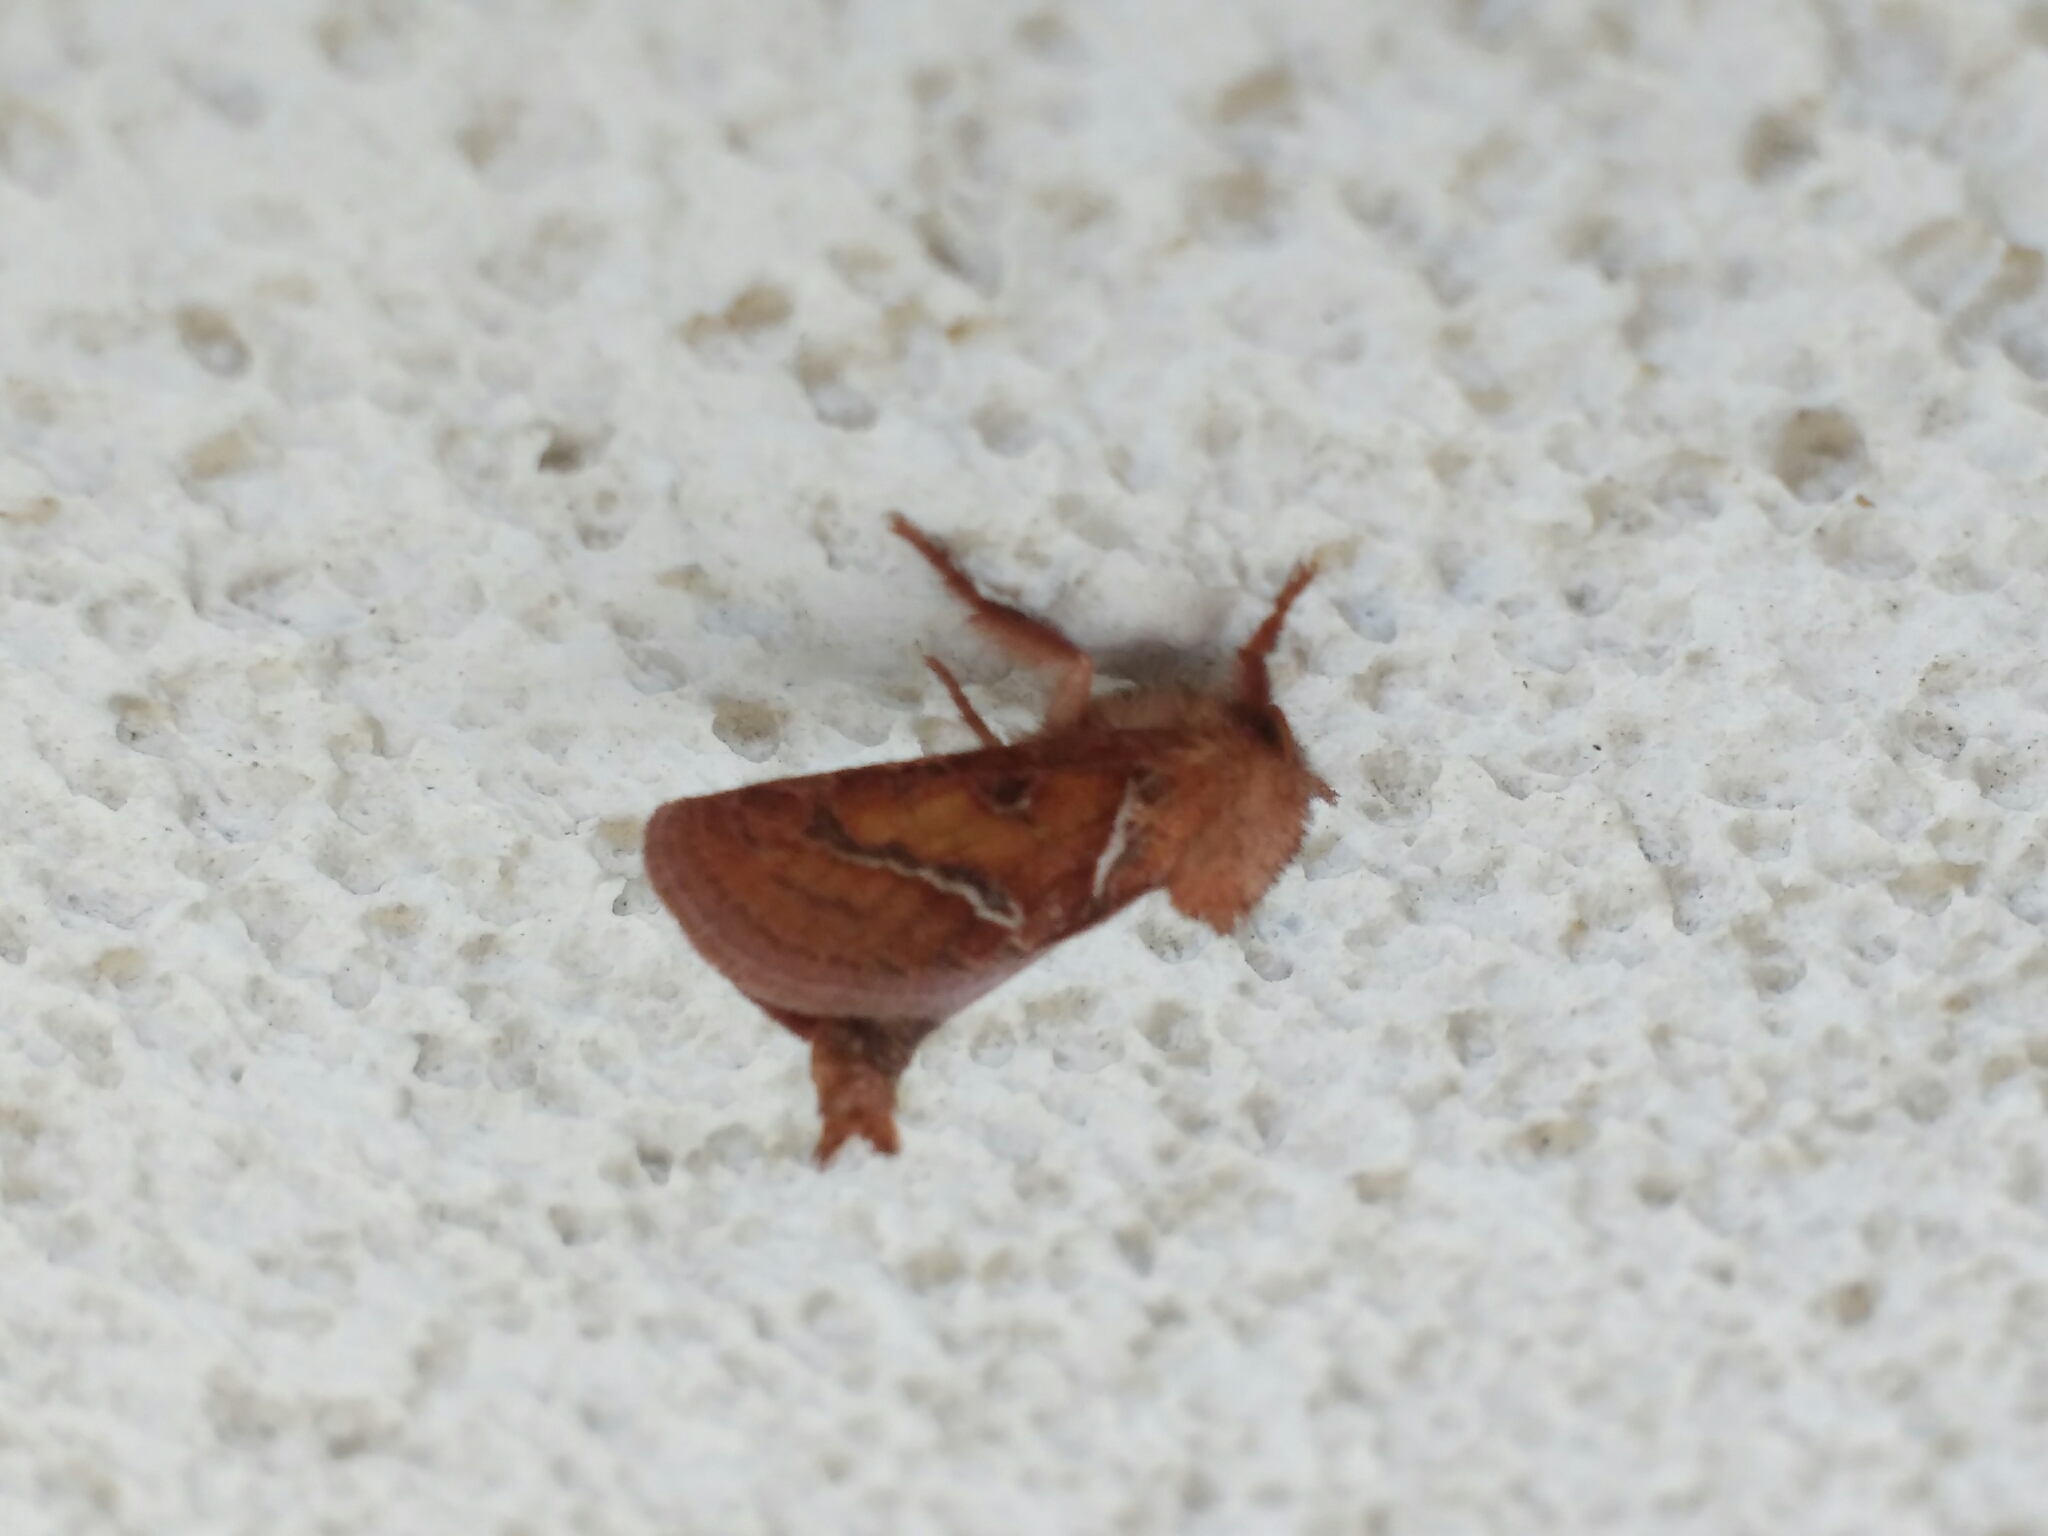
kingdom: Animalia
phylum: Arthropoda
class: Insecta
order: Lepidoptera
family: Hepialidae
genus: Triodia
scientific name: Triodia sylvina
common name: Orange swift
